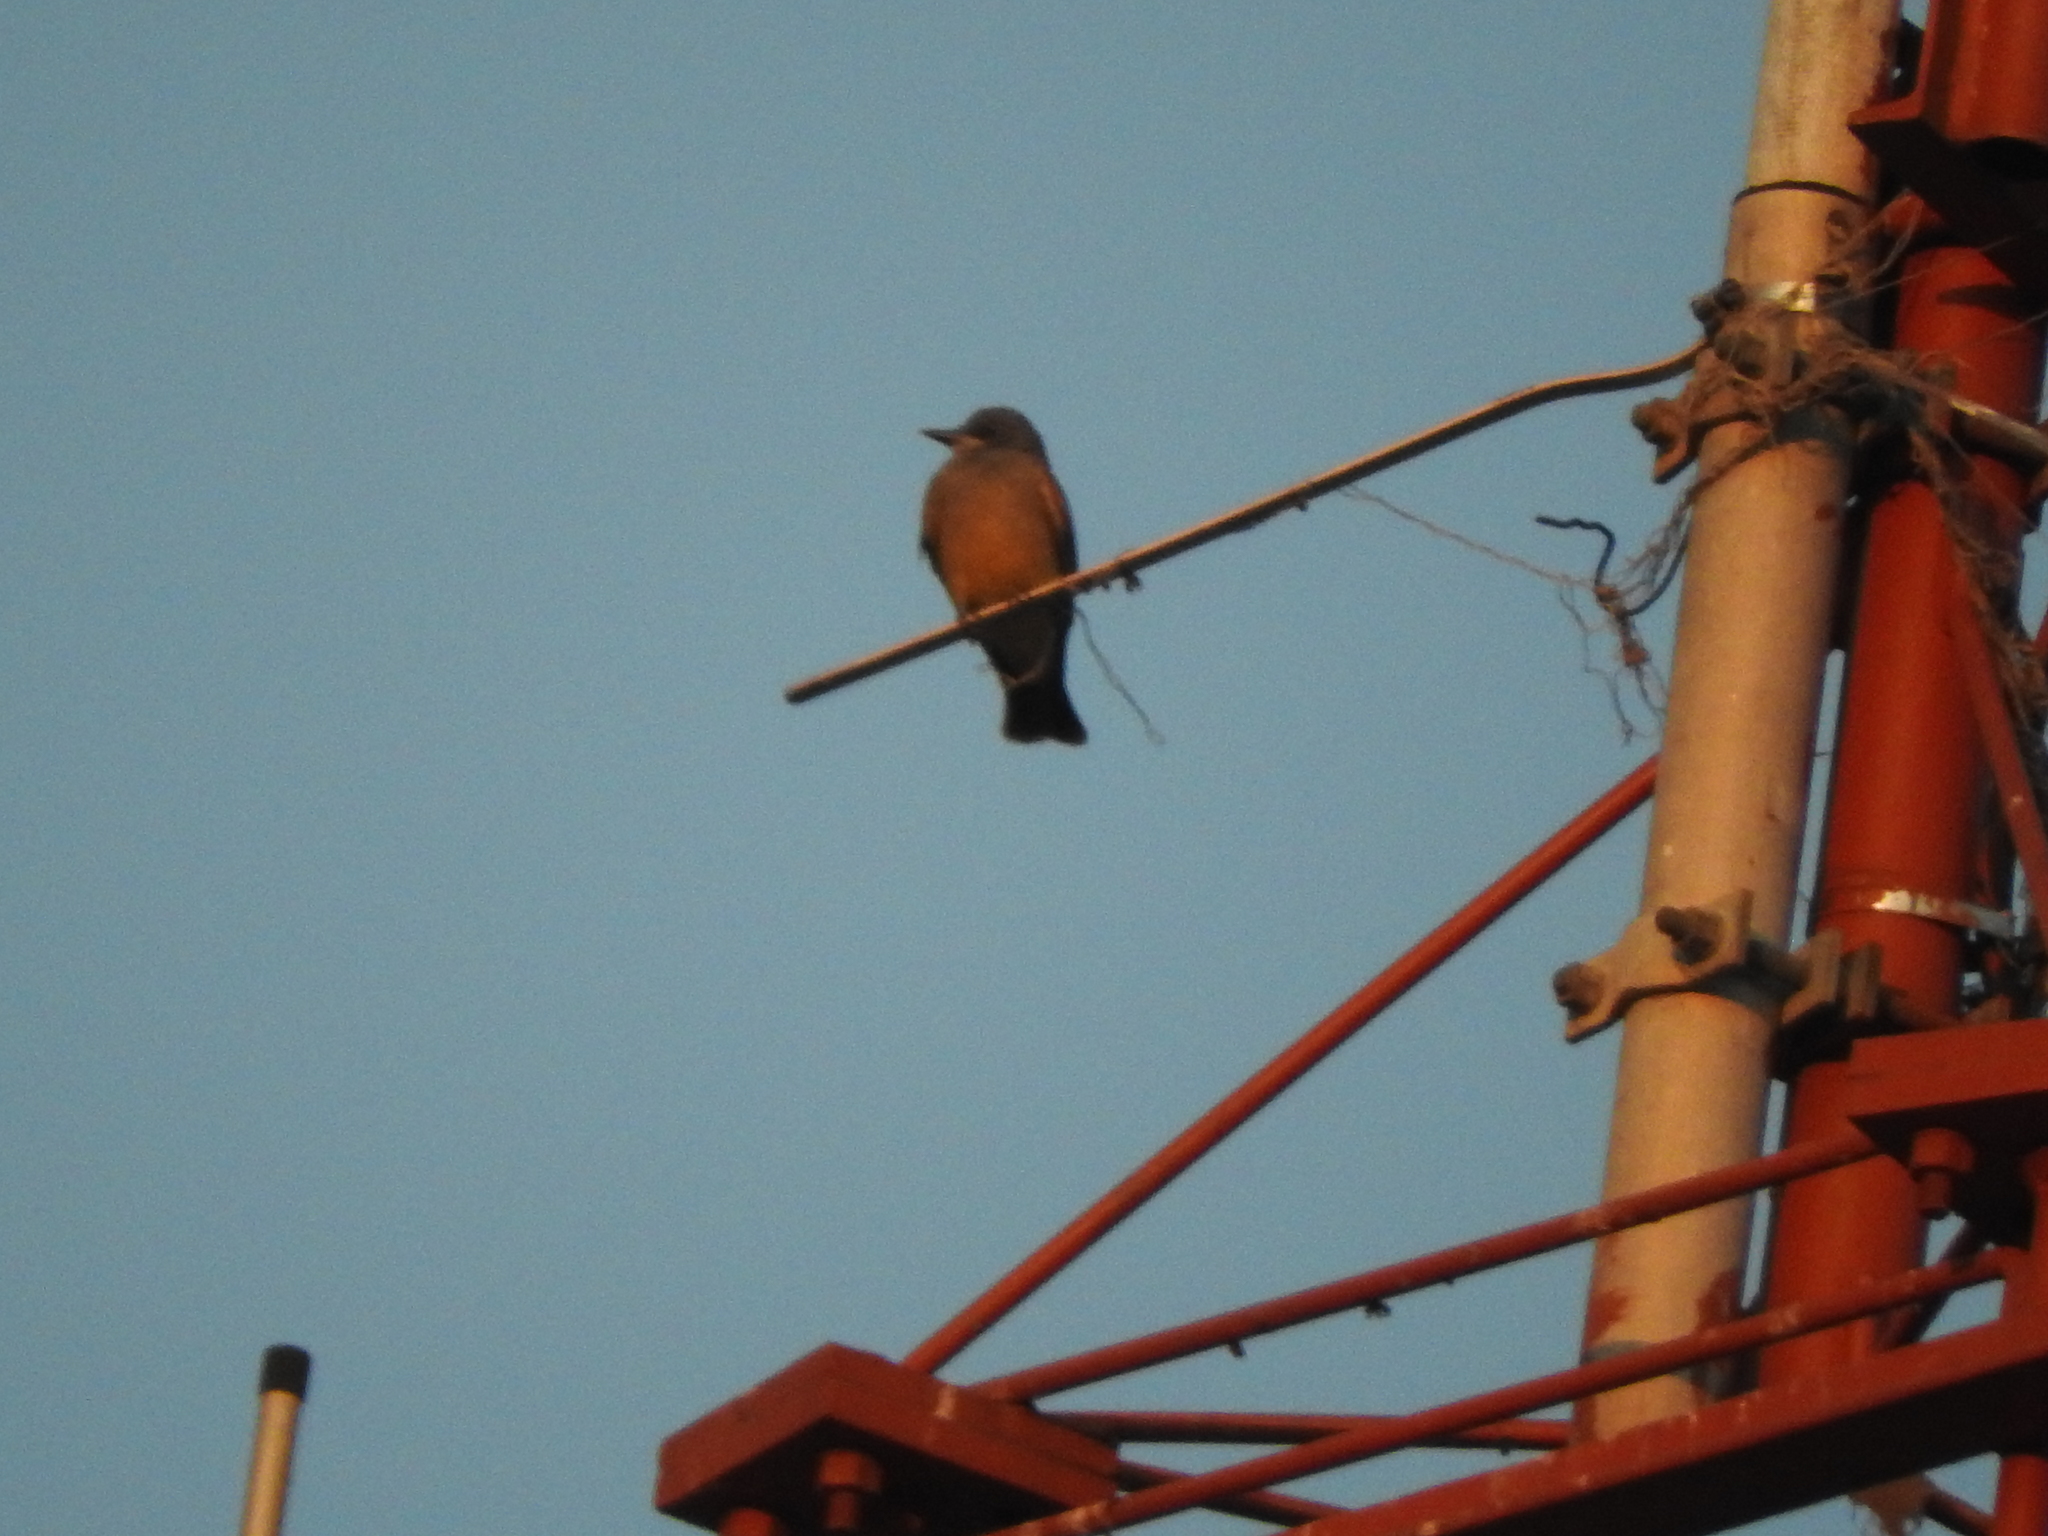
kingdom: Animalia
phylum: Chordata
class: Aves
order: Passeriformes
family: Tyrannidae
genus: Tyrannus
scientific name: Tyrannus vociferans
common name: Cassin's kingbird
